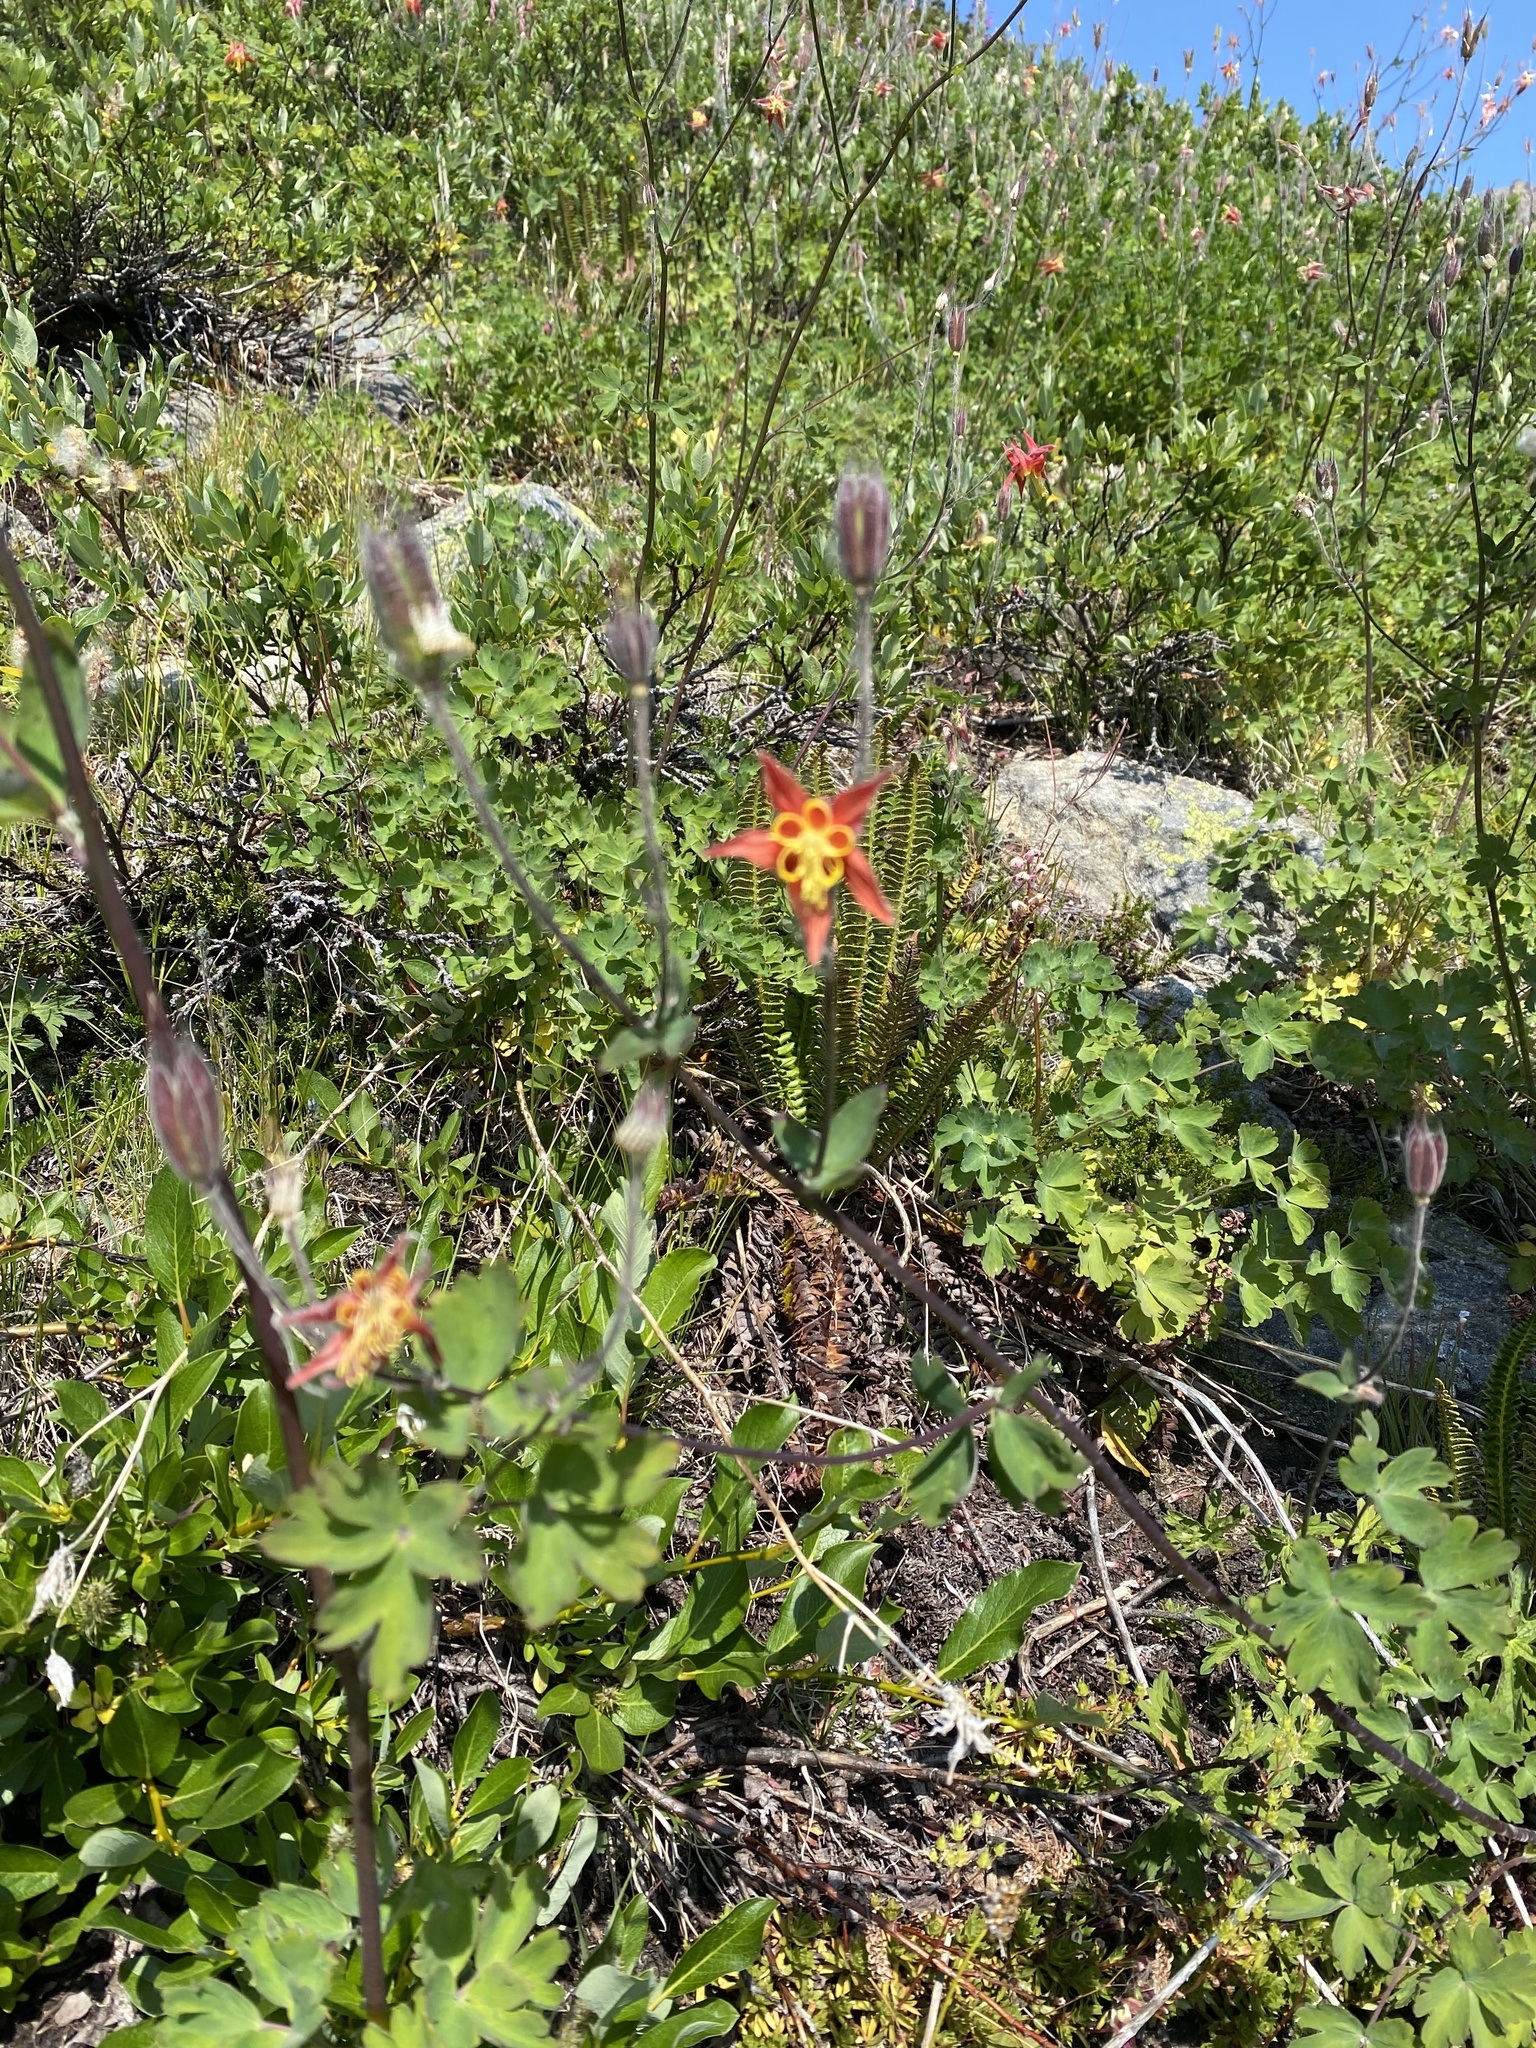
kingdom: Plantae
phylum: Tracheophyta
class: Magnoliopsida
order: Ranunculales
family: Ranunculaceae
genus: Aquilegia
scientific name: Aquilegia formosa
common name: Sitka columbine
